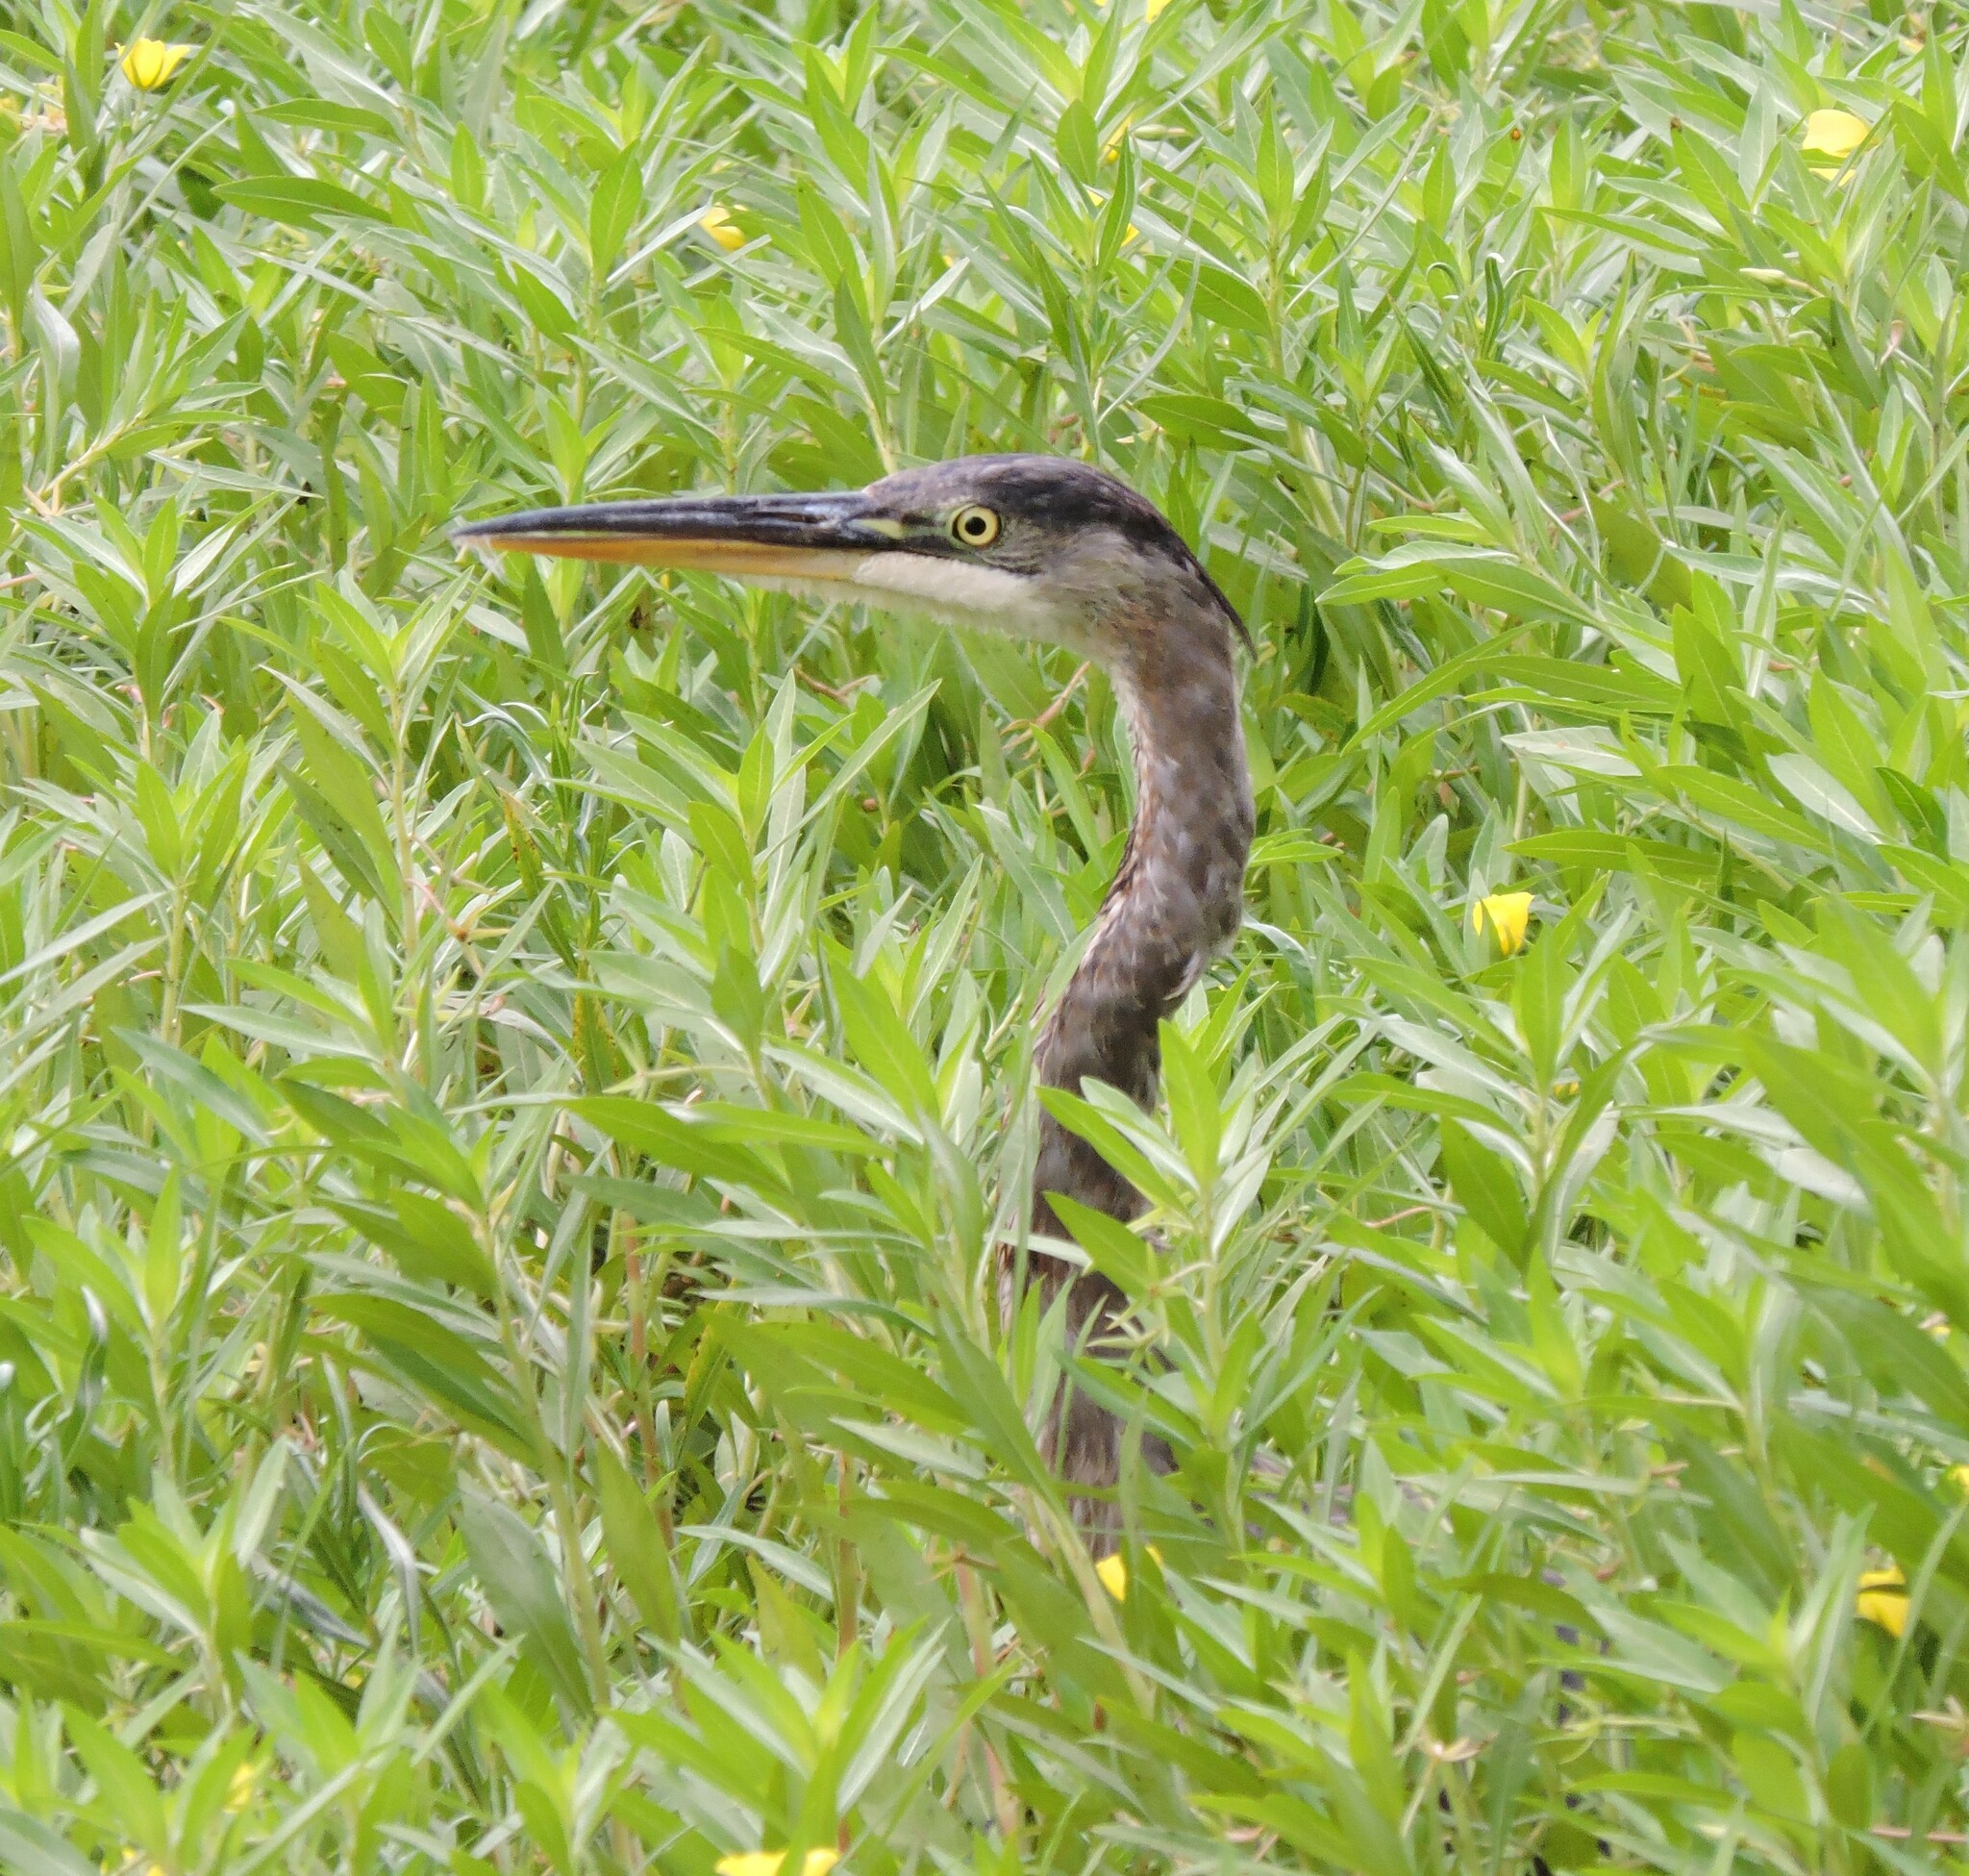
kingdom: Animalia
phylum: Chordata
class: Aves
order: Pelecaniformes
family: Ardeidae
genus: Ardea
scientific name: Ardea herodias
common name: Great blue heron
